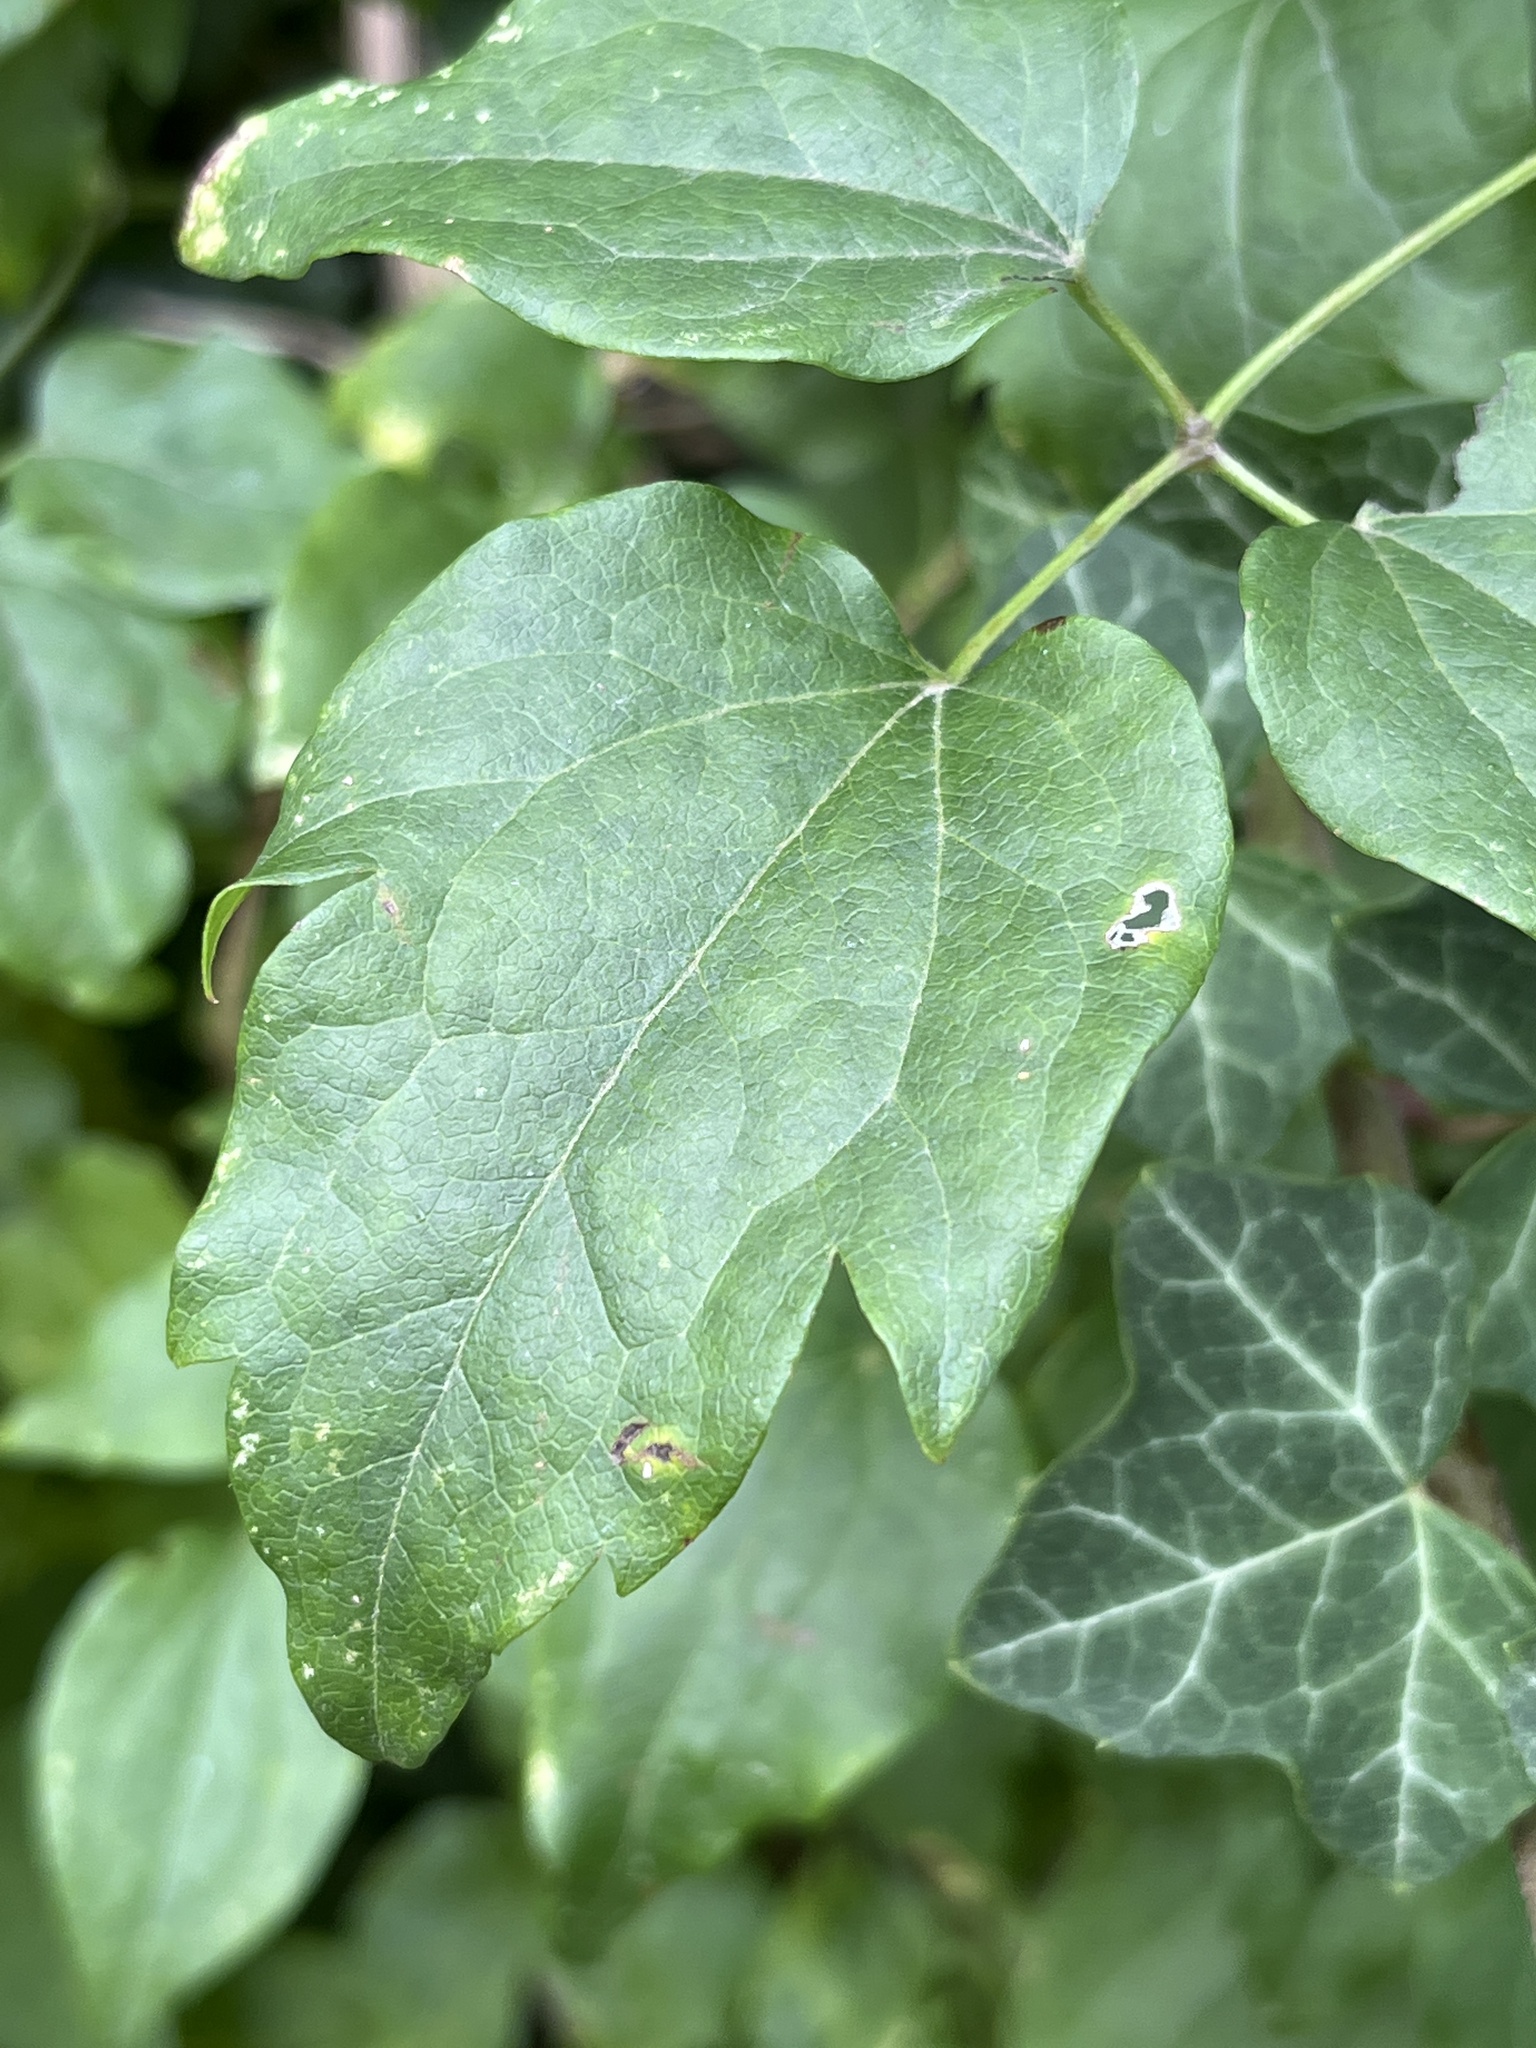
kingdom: Plantae
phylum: Tracheophyta
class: Magnoliopsida
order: Ranunculales
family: Ranunculaceae
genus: Clematis
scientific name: Clematis vitalba
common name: Evergreen clematis
